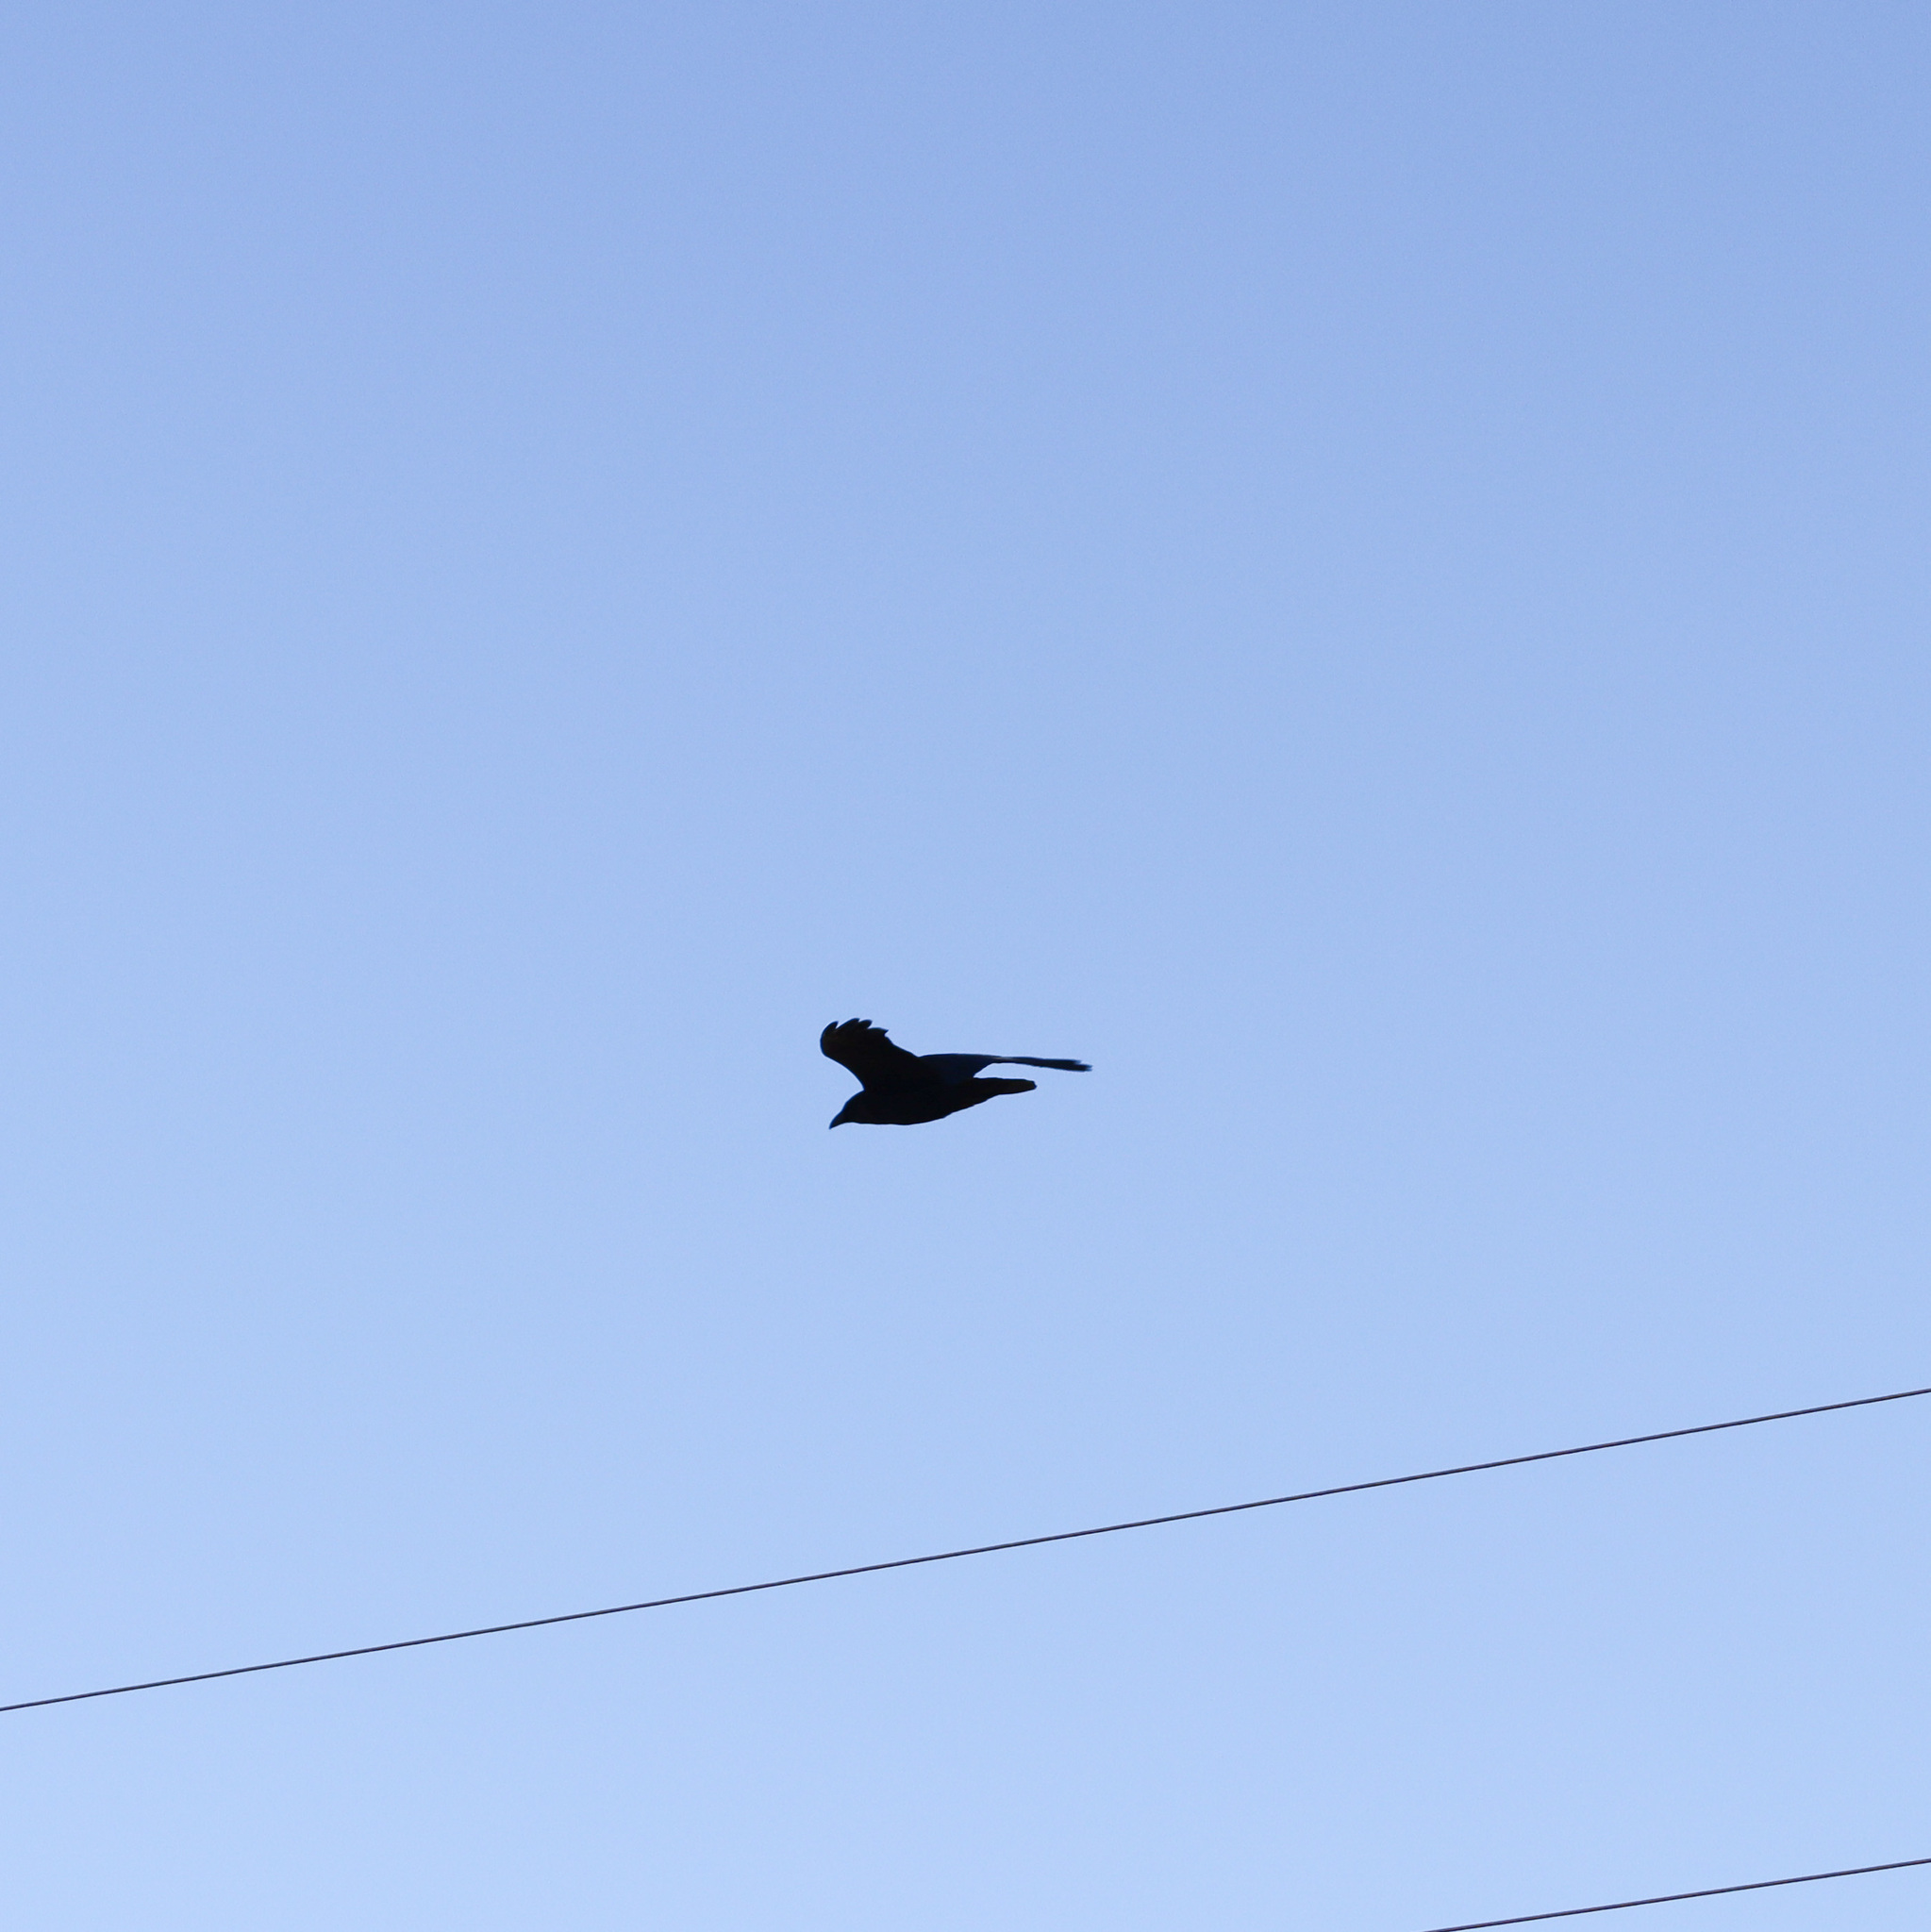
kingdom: Animalia
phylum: Chordata
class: Aves
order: Passeriformes
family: Corvidae
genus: Corvus
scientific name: Corvus brachyrhynchos
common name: American crow
